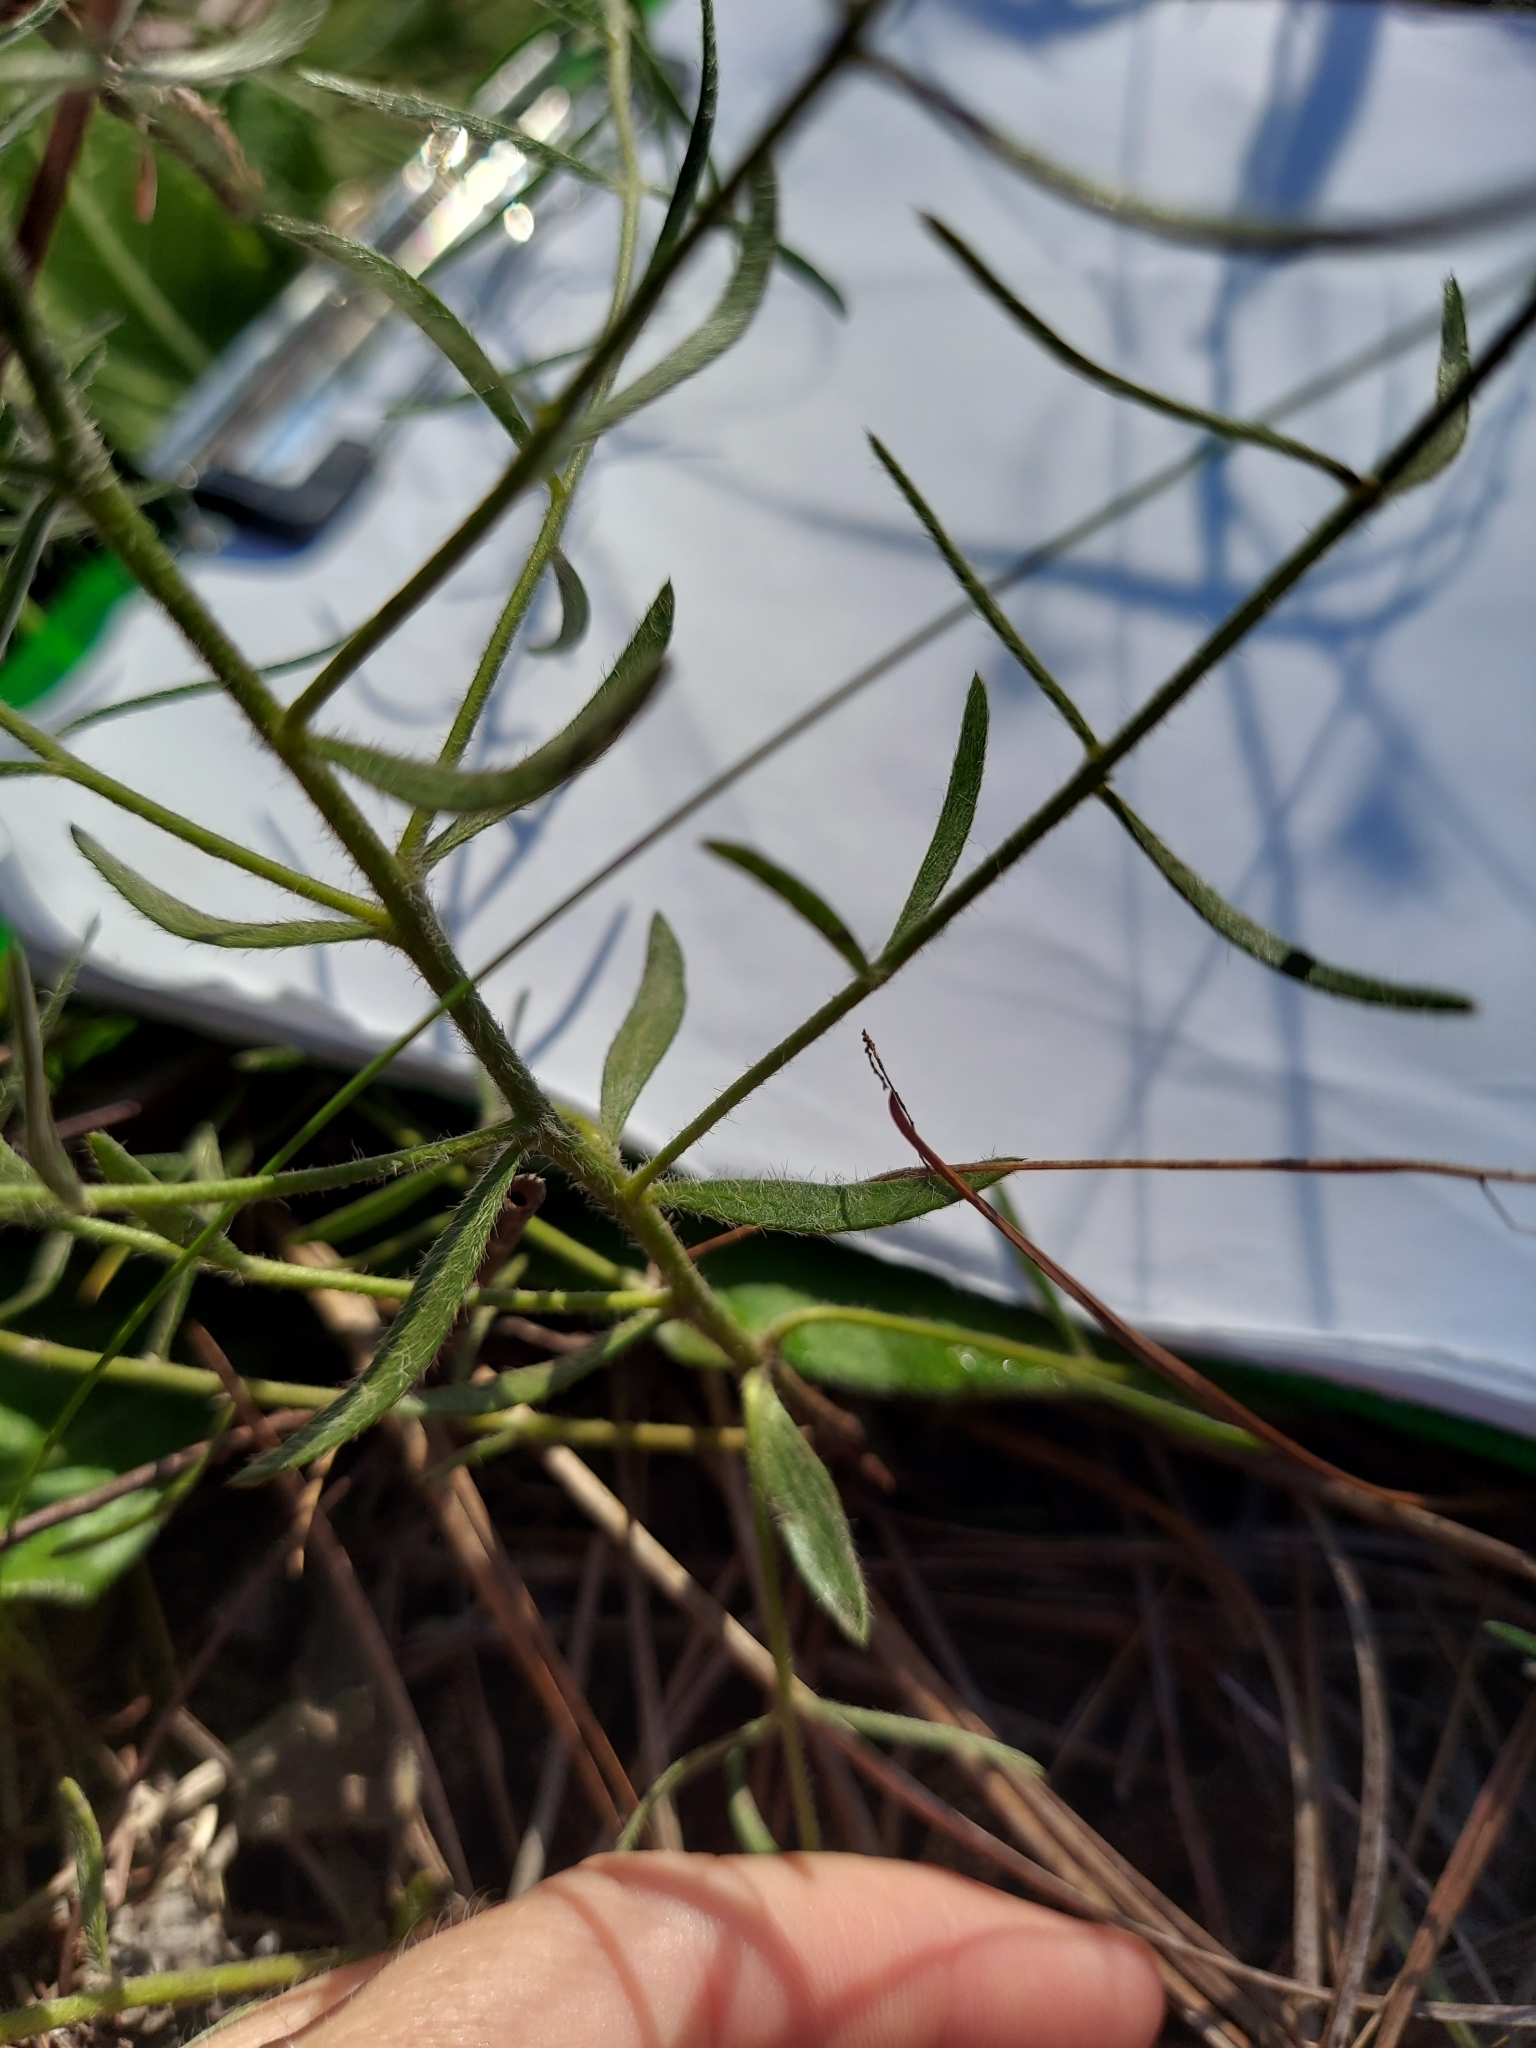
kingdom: Plantae
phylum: Tracheophyta
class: Magnoliopsida
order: Zygophyllales
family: Krameriaceae
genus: Krameria
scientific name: Krameria lanceolata
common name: Ratany
